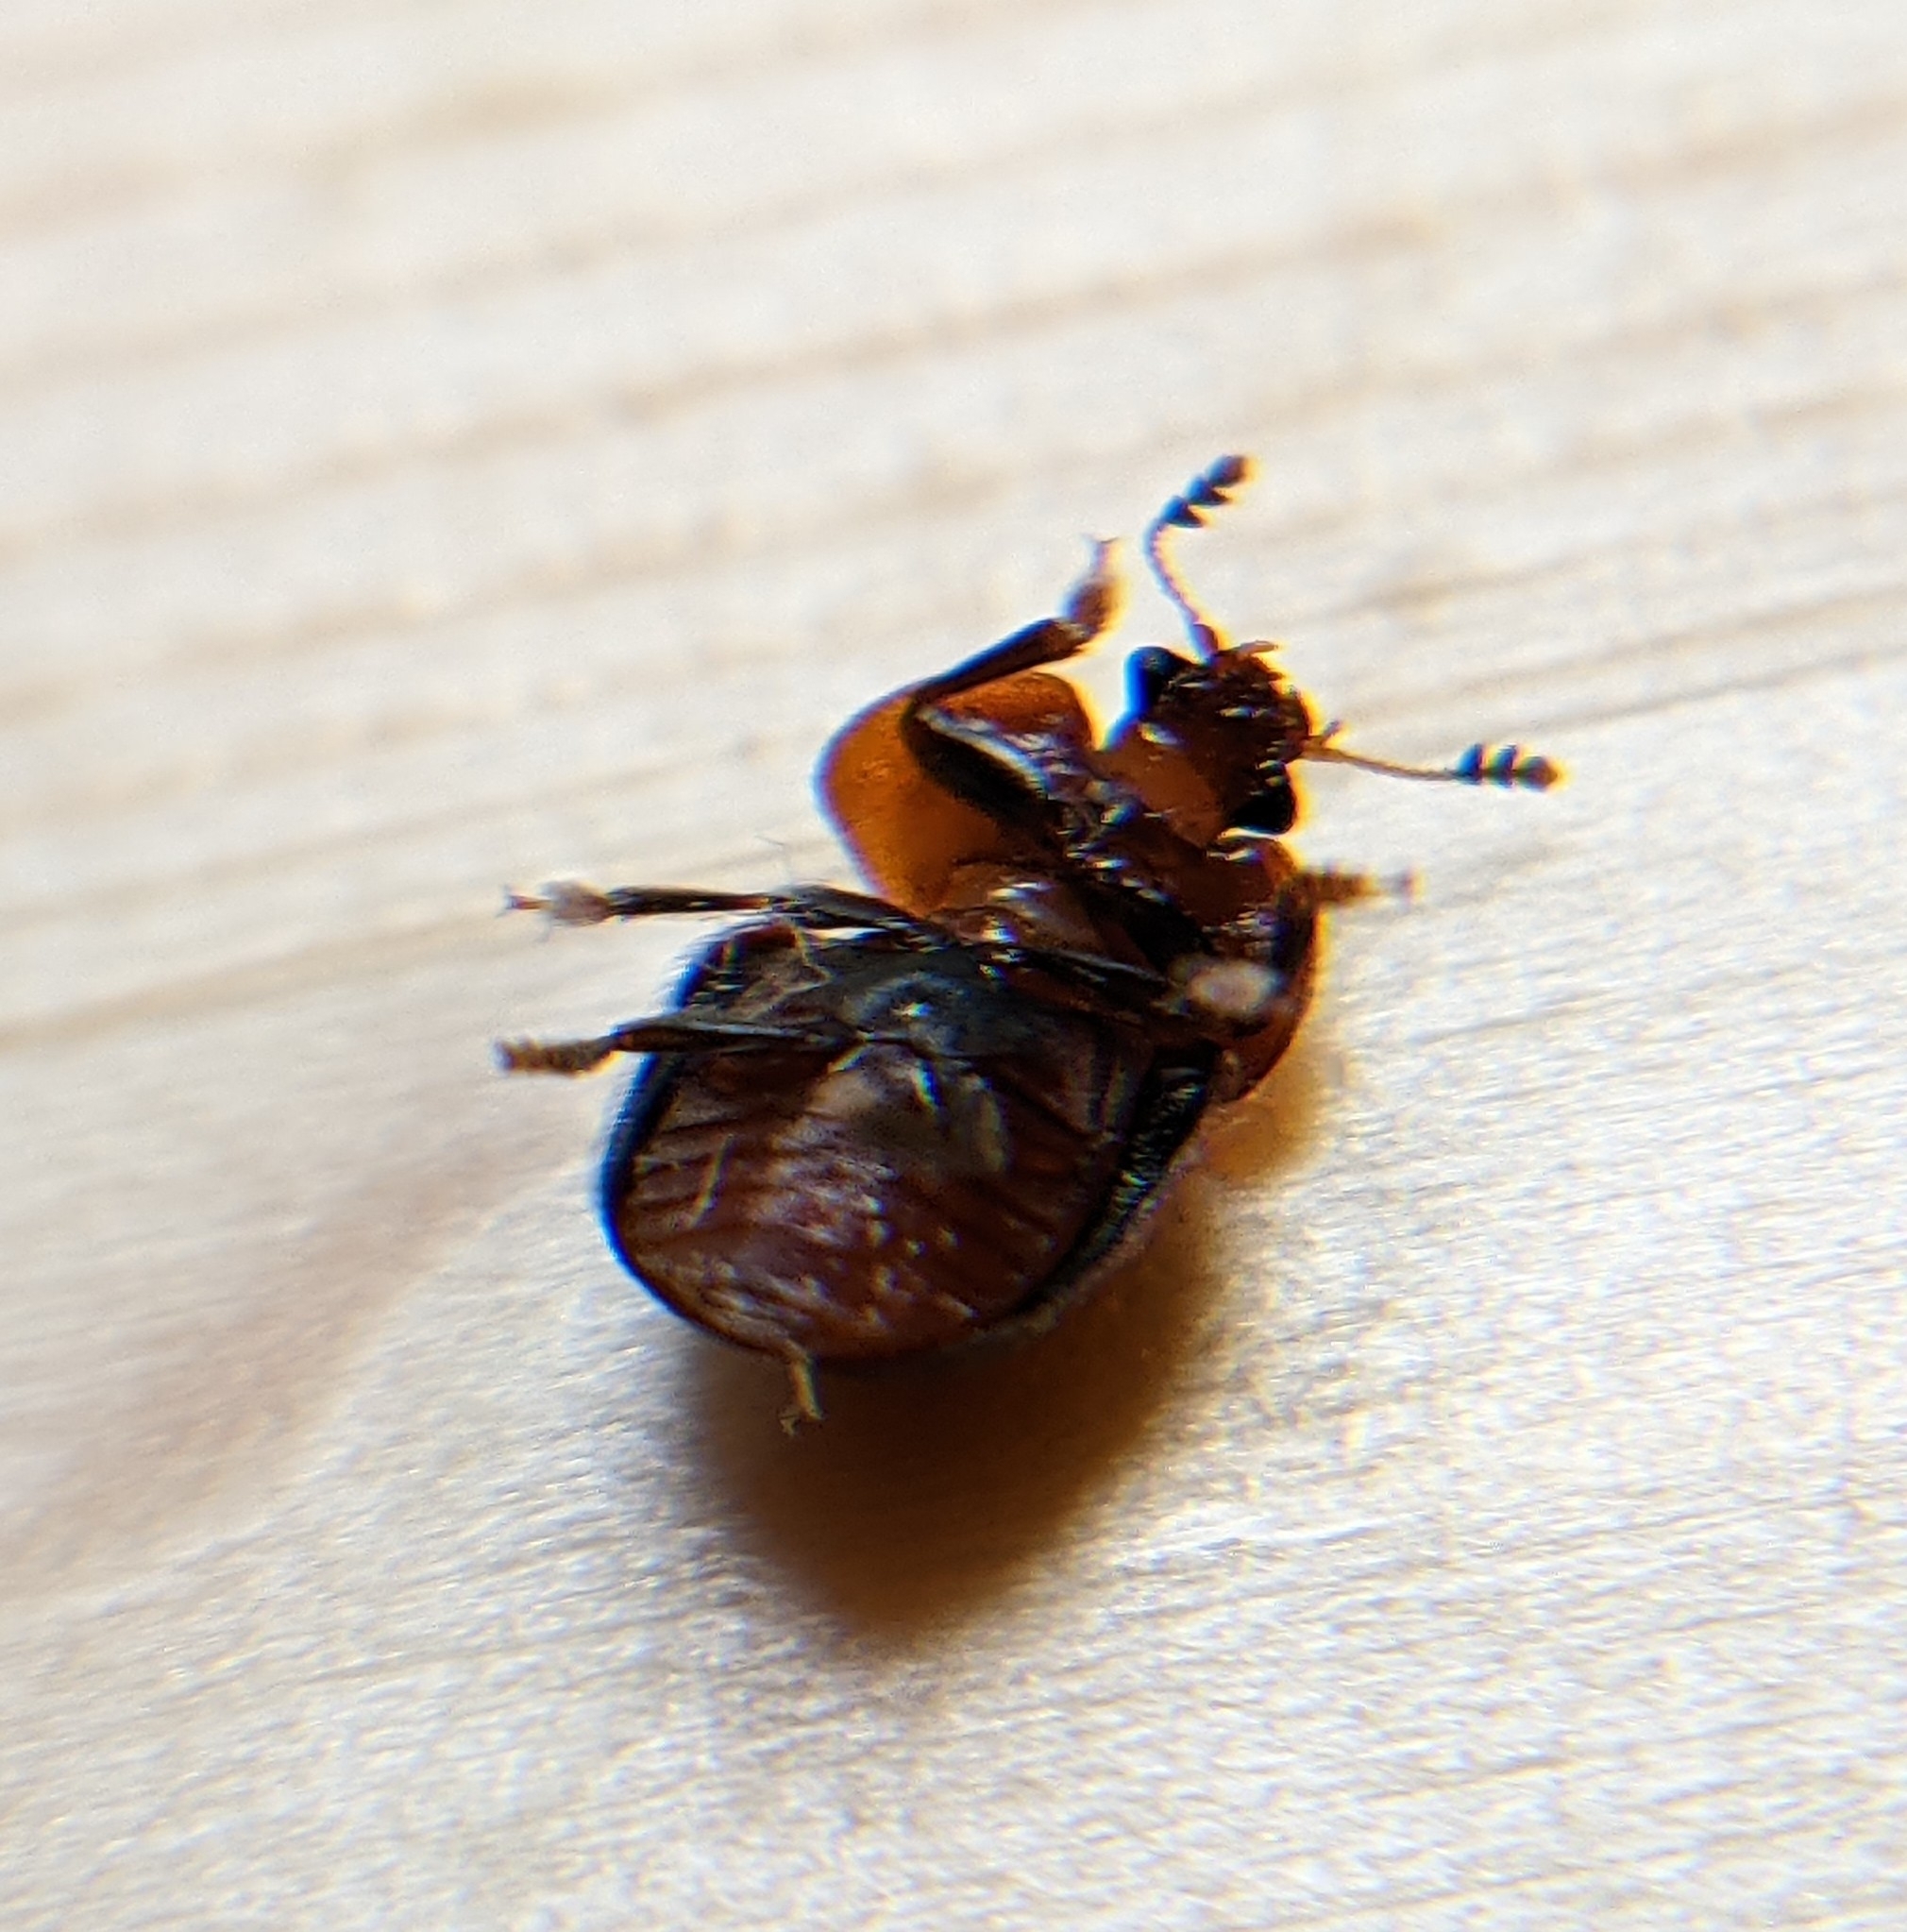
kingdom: Animalia
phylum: Arthropoda
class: Insecta
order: Coleoptera
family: Nitidulidae
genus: Cychramus
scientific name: Cychramus variegatus
